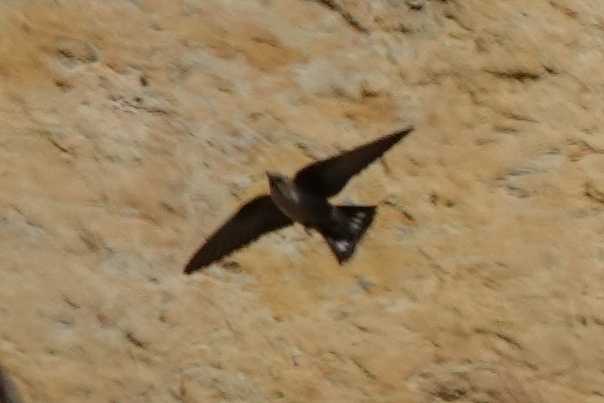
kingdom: Animalia
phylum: Chordata
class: Aves
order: Passeriformes
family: Hirundinidae
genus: Ptyonoprogne
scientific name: Ptyonoprogne rupestris
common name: Eurasian crag martin
